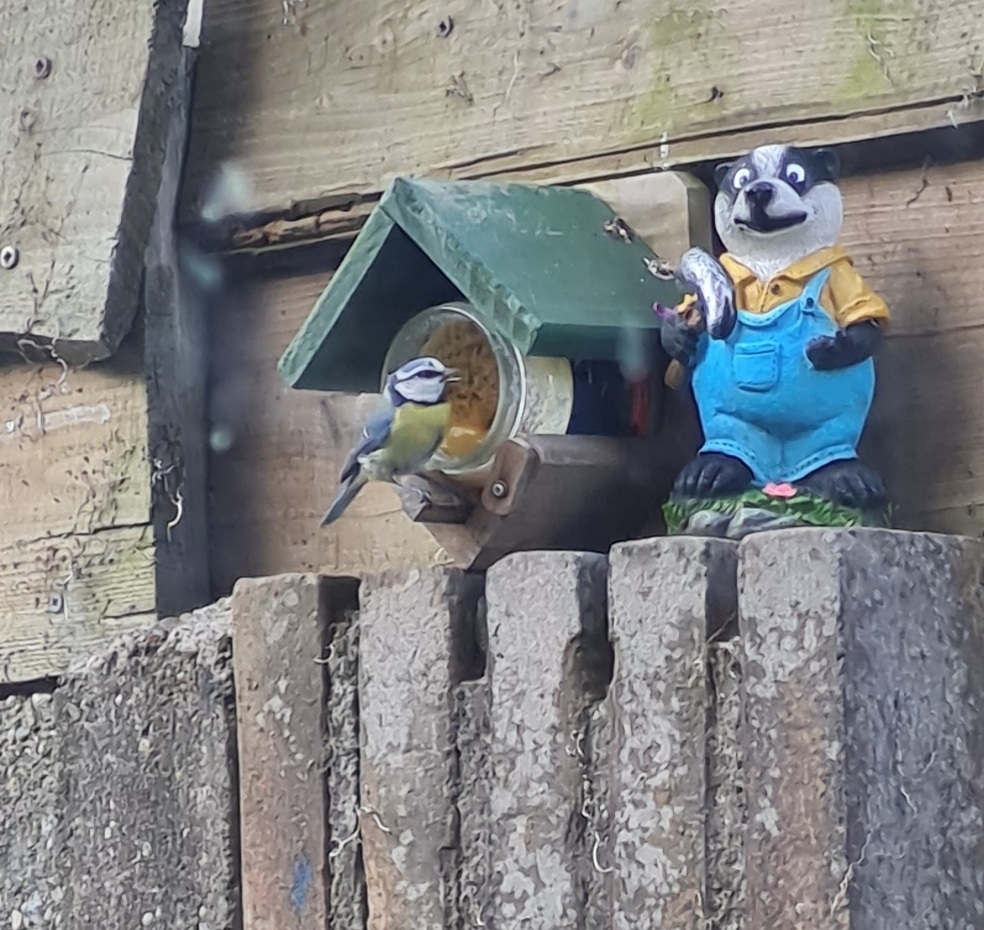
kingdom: Animalia
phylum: Chordata
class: Aves
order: Passeriformes
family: Paridae
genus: Cyanistes
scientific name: Cyanistes caeruleus
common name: Eurasian blue tit
